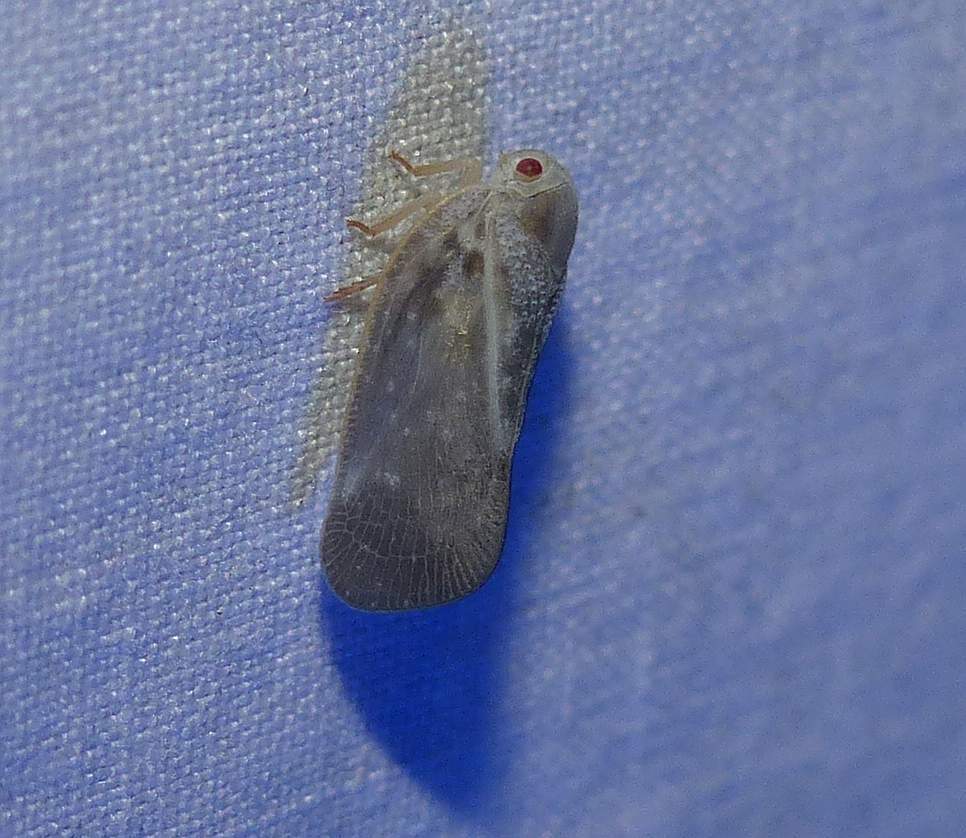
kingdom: Animalia
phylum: Arthropoda
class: Insecta
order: Hemiptera
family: Flatidae
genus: Metcalfa
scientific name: Metcalfa pruinosa
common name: Citrus flatid planthopper
